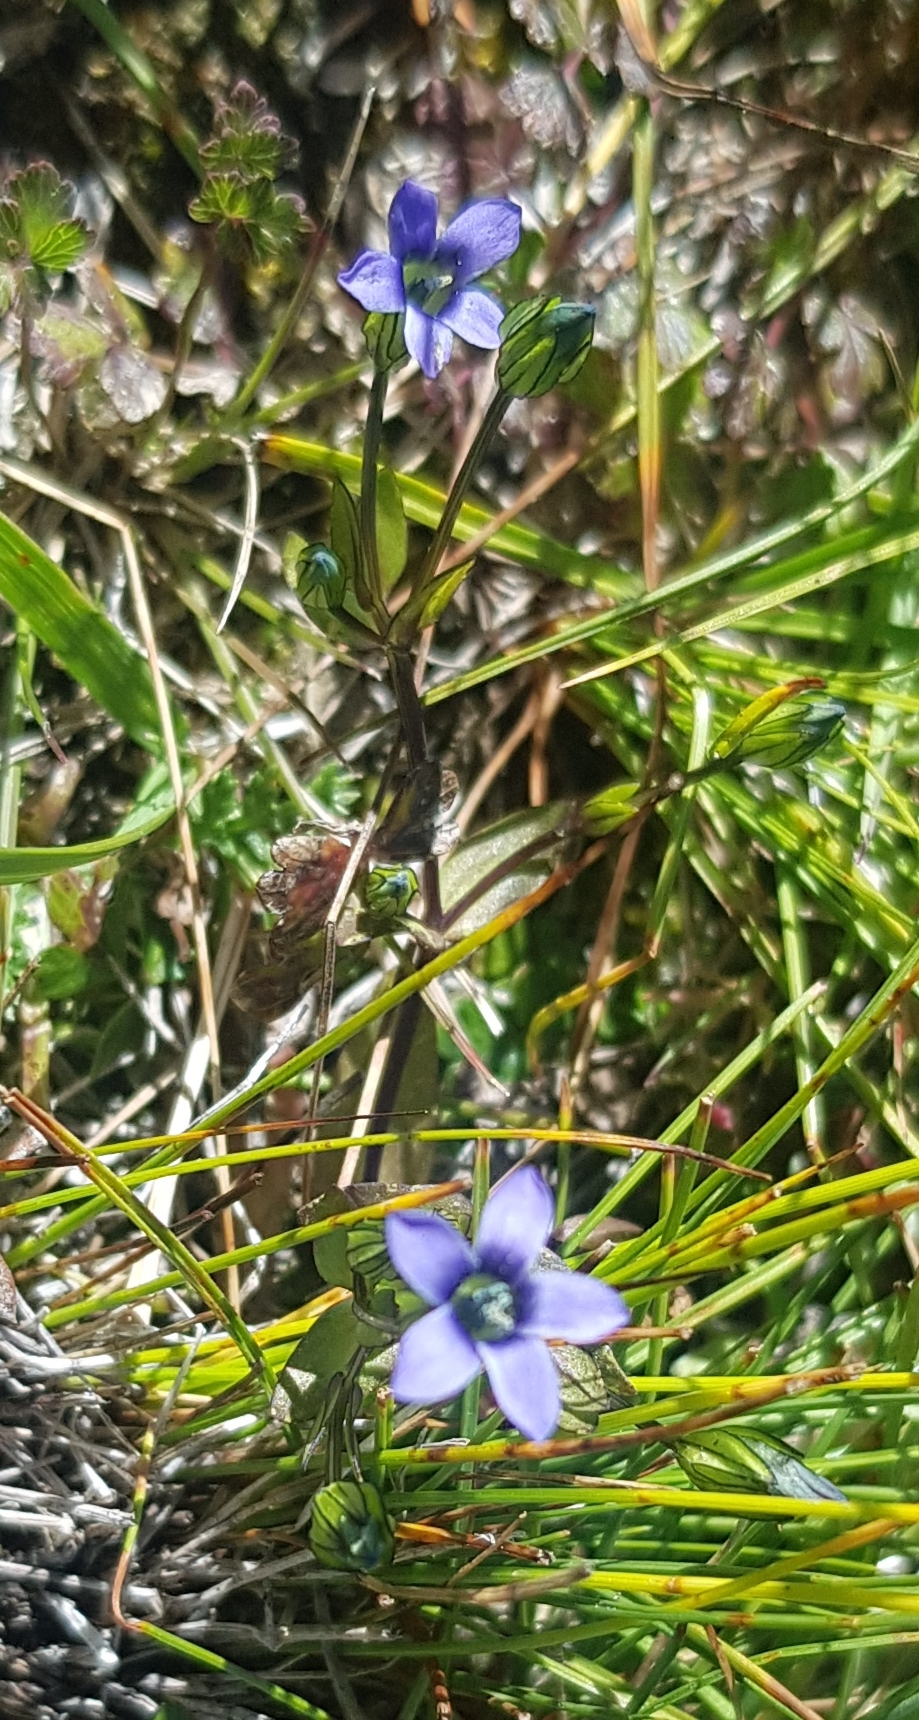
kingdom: Plantae
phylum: Tracheophyta
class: Magnoliopsida
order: Gentianales
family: Gentianaceae
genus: Comastoma
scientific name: Comastoma tenellum
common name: Dane's dwarf gentian
